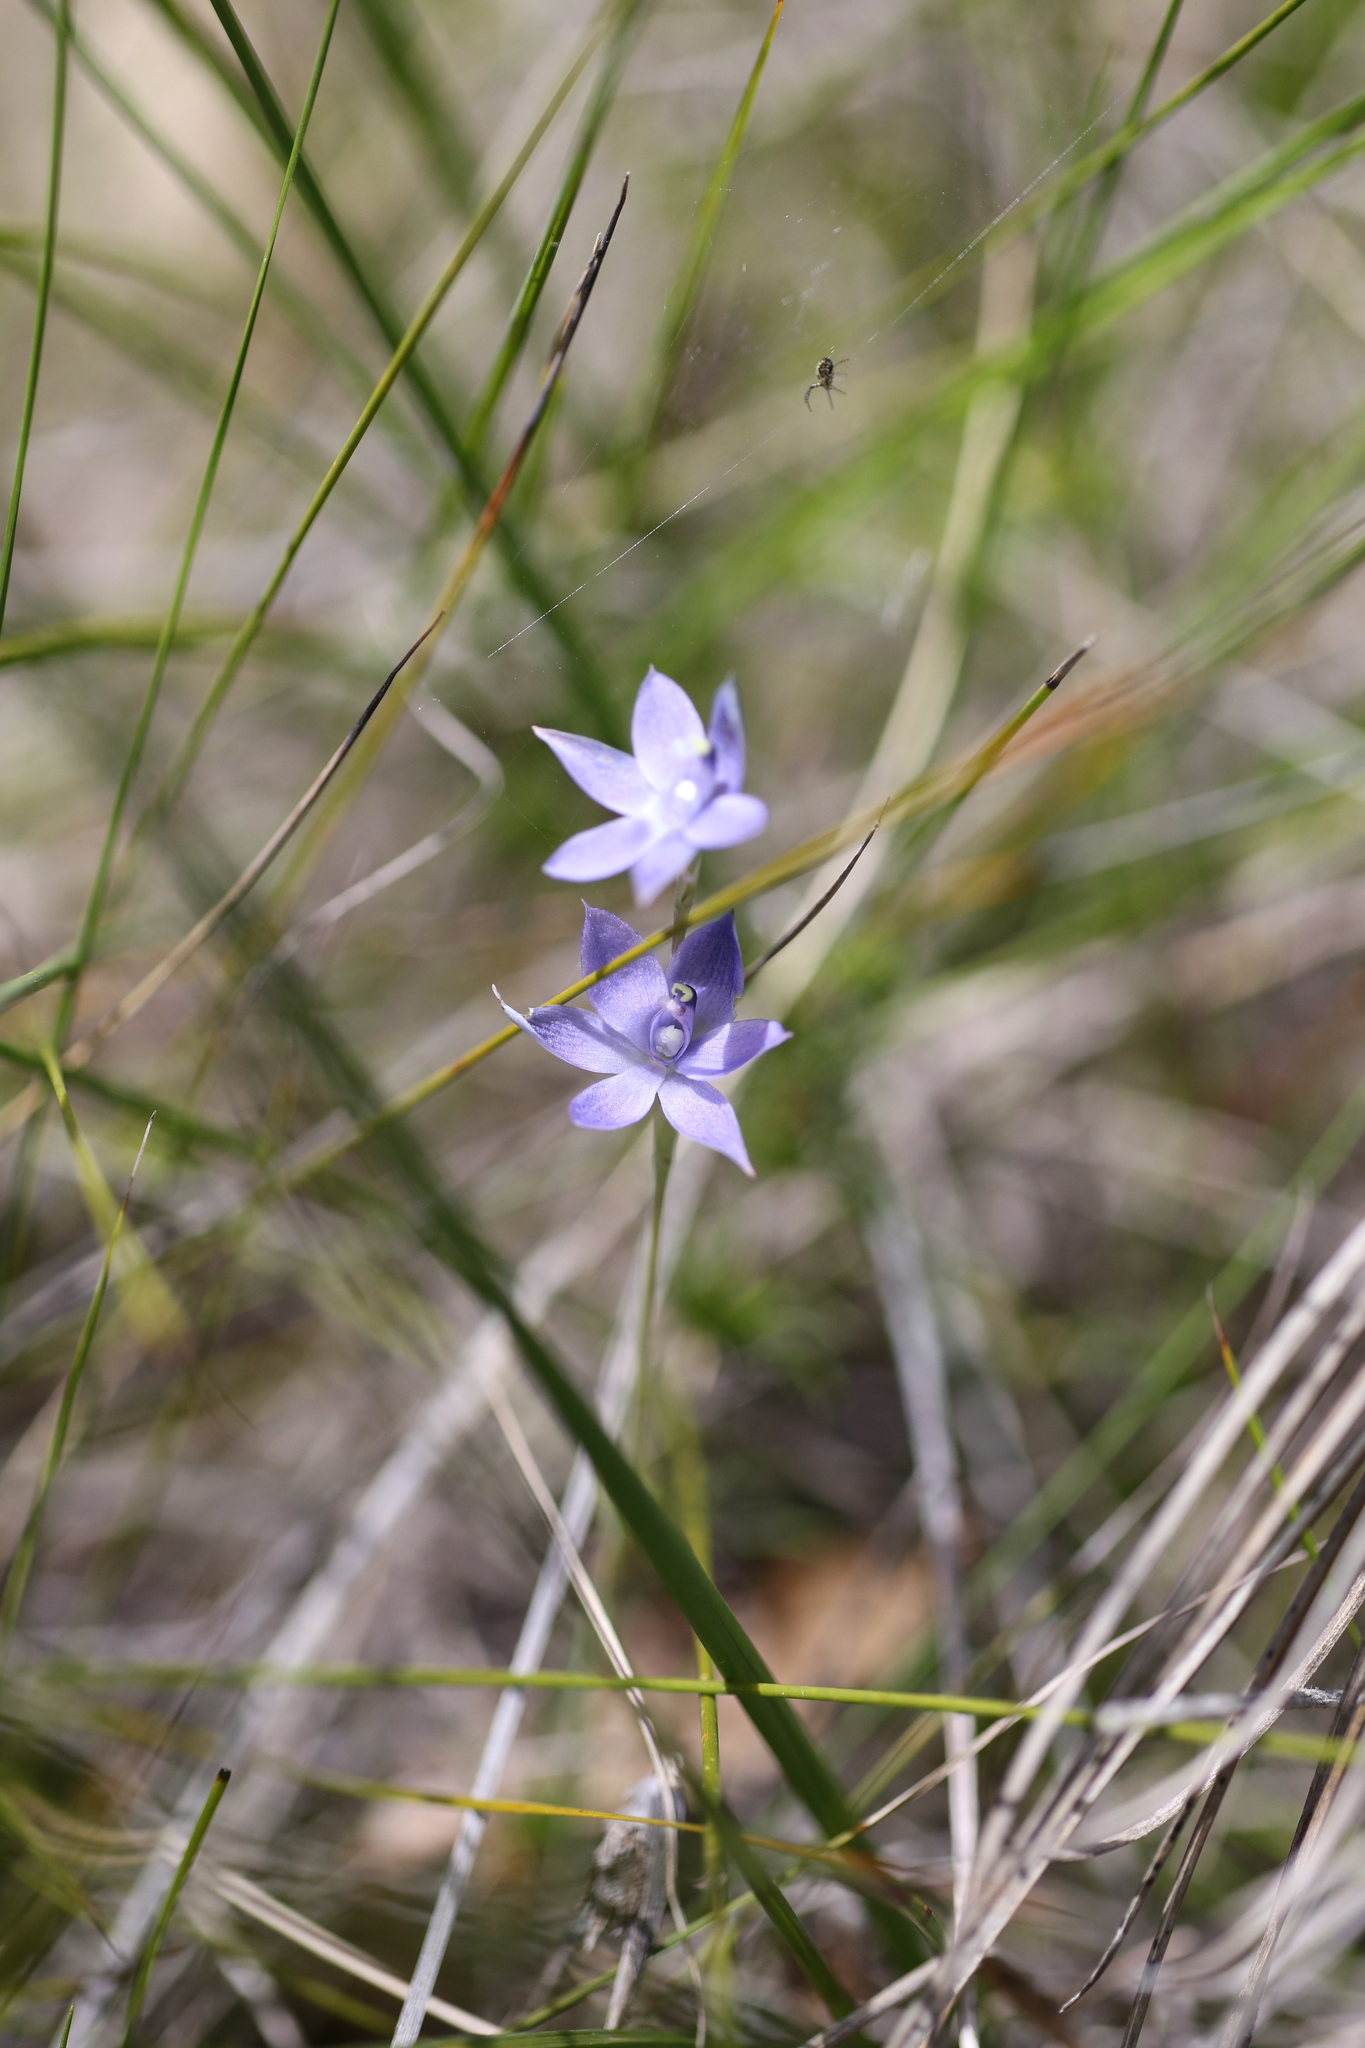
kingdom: Plantae
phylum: Tracheophyta
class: Liliopsida
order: Asparagales
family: Orchidaceae
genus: Thelymitra
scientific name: Thelymitra graminea
